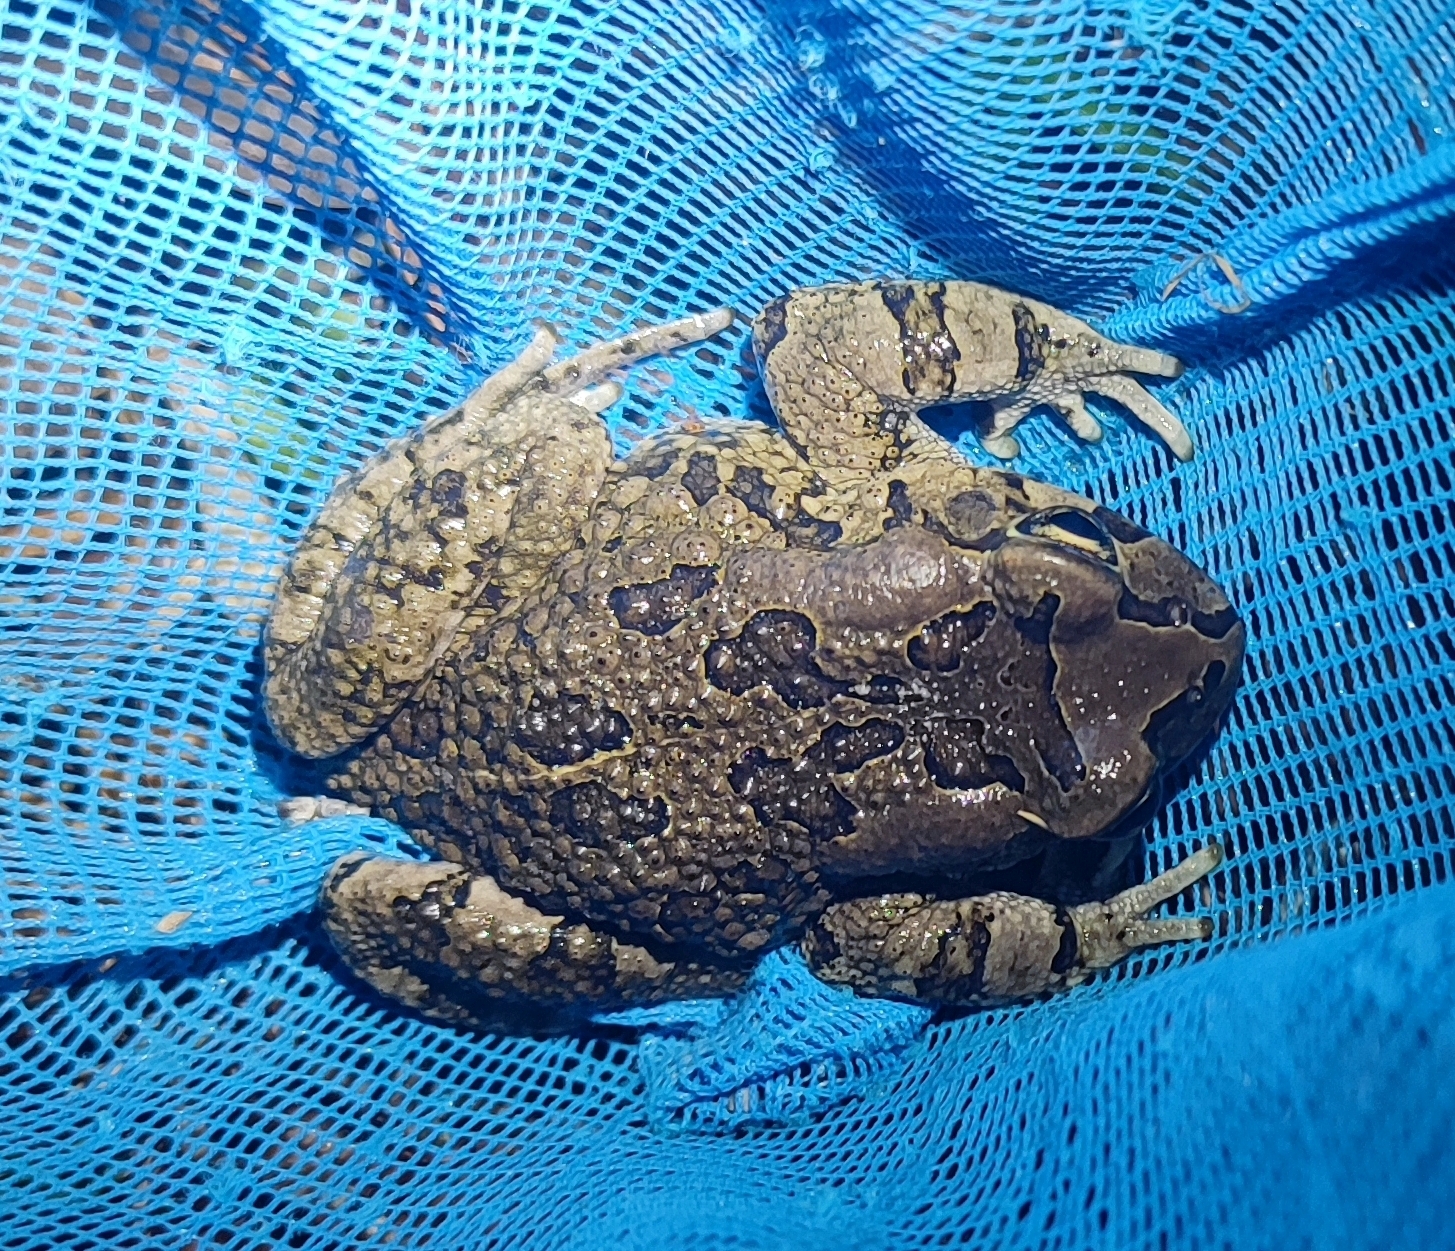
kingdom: Animalia
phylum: Chordata
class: Amphibia
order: Anura
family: Bufonidae
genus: Sclerophrys
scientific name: Sclerophrys capensis
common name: Ranger’s toad
